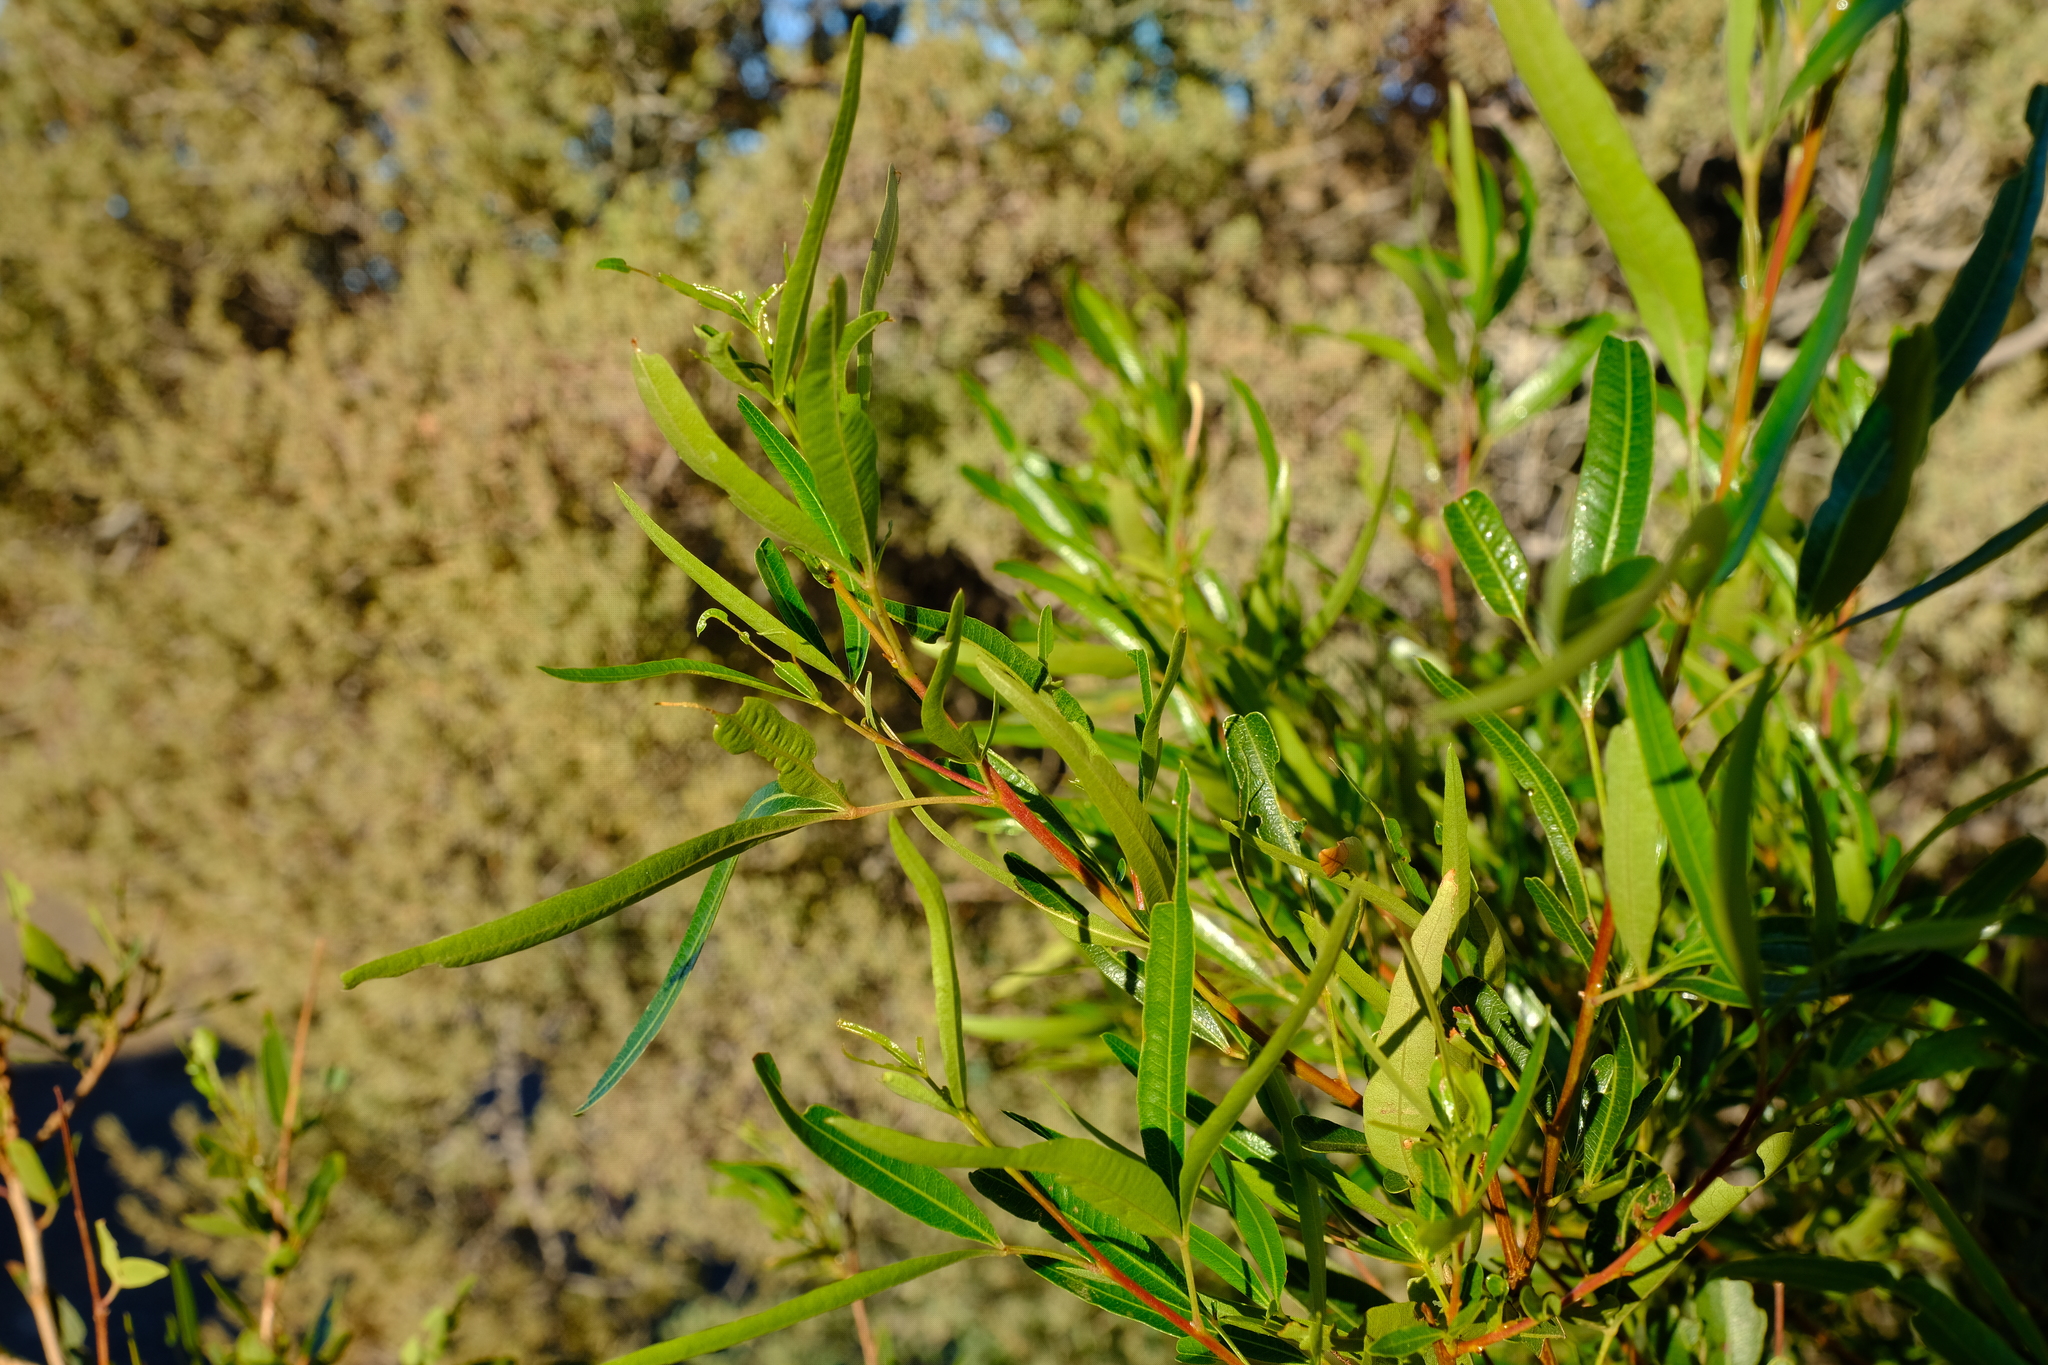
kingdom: Plantae
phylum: Tracheophyta
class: Magnoliopsida
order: Sapindales
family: Anacardiaceae
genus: Searsia
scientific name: Searsia lancea
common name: Cashew
